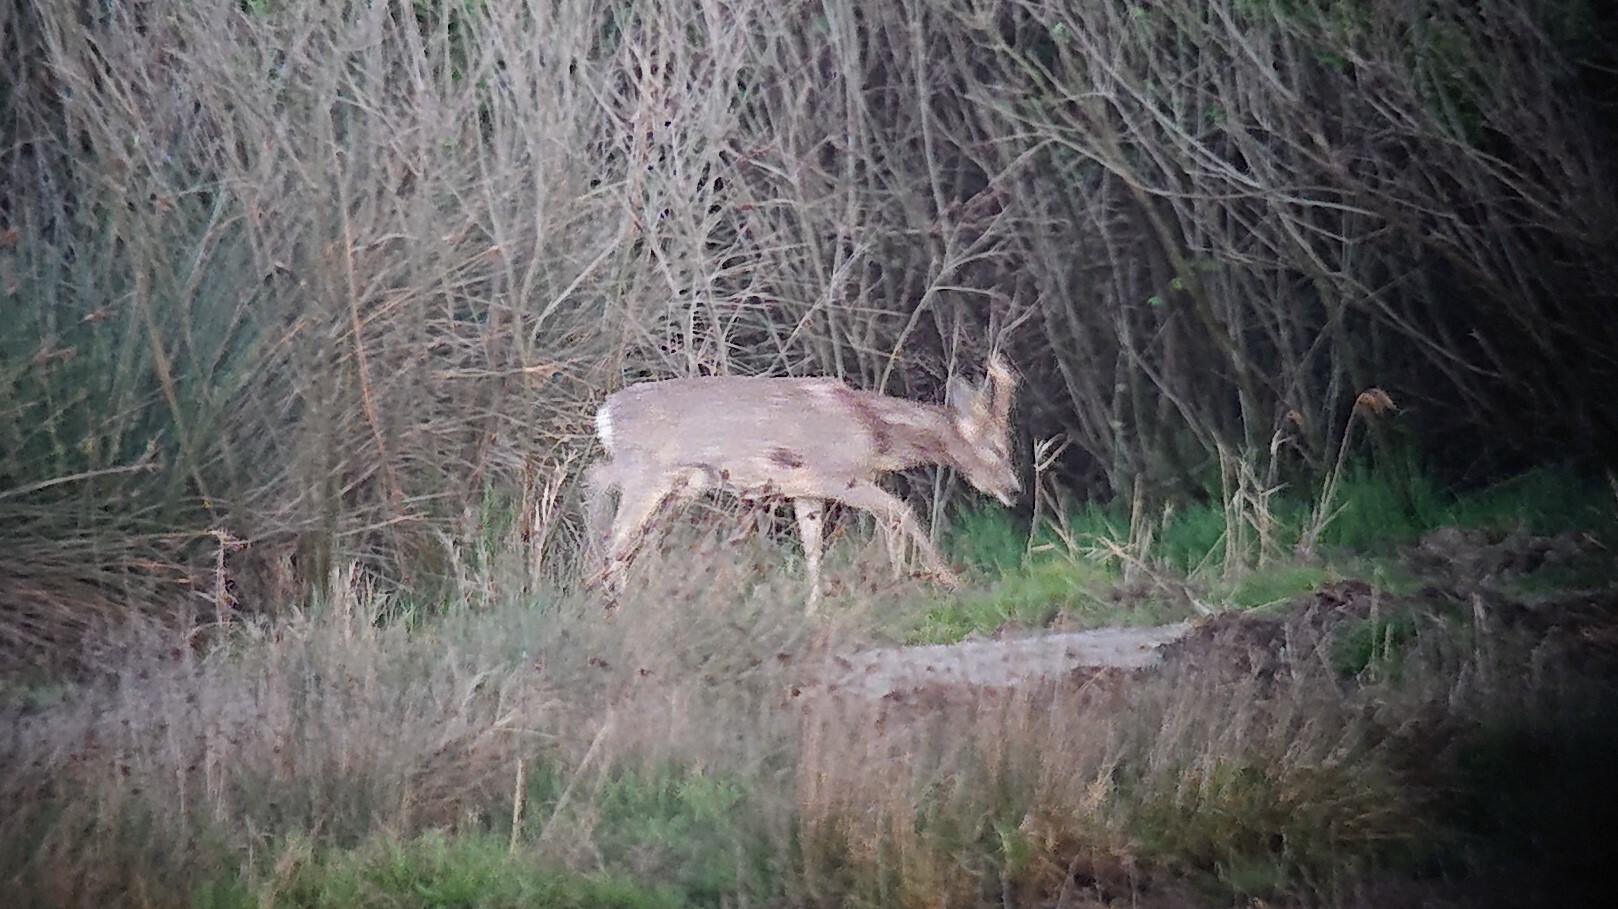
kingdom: Animalia
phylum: Chordata
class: Mammalia
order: Artiodactyla
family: Cervidae
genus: Capreolus
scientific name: Capreolus capreolus
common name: Western roe deer
